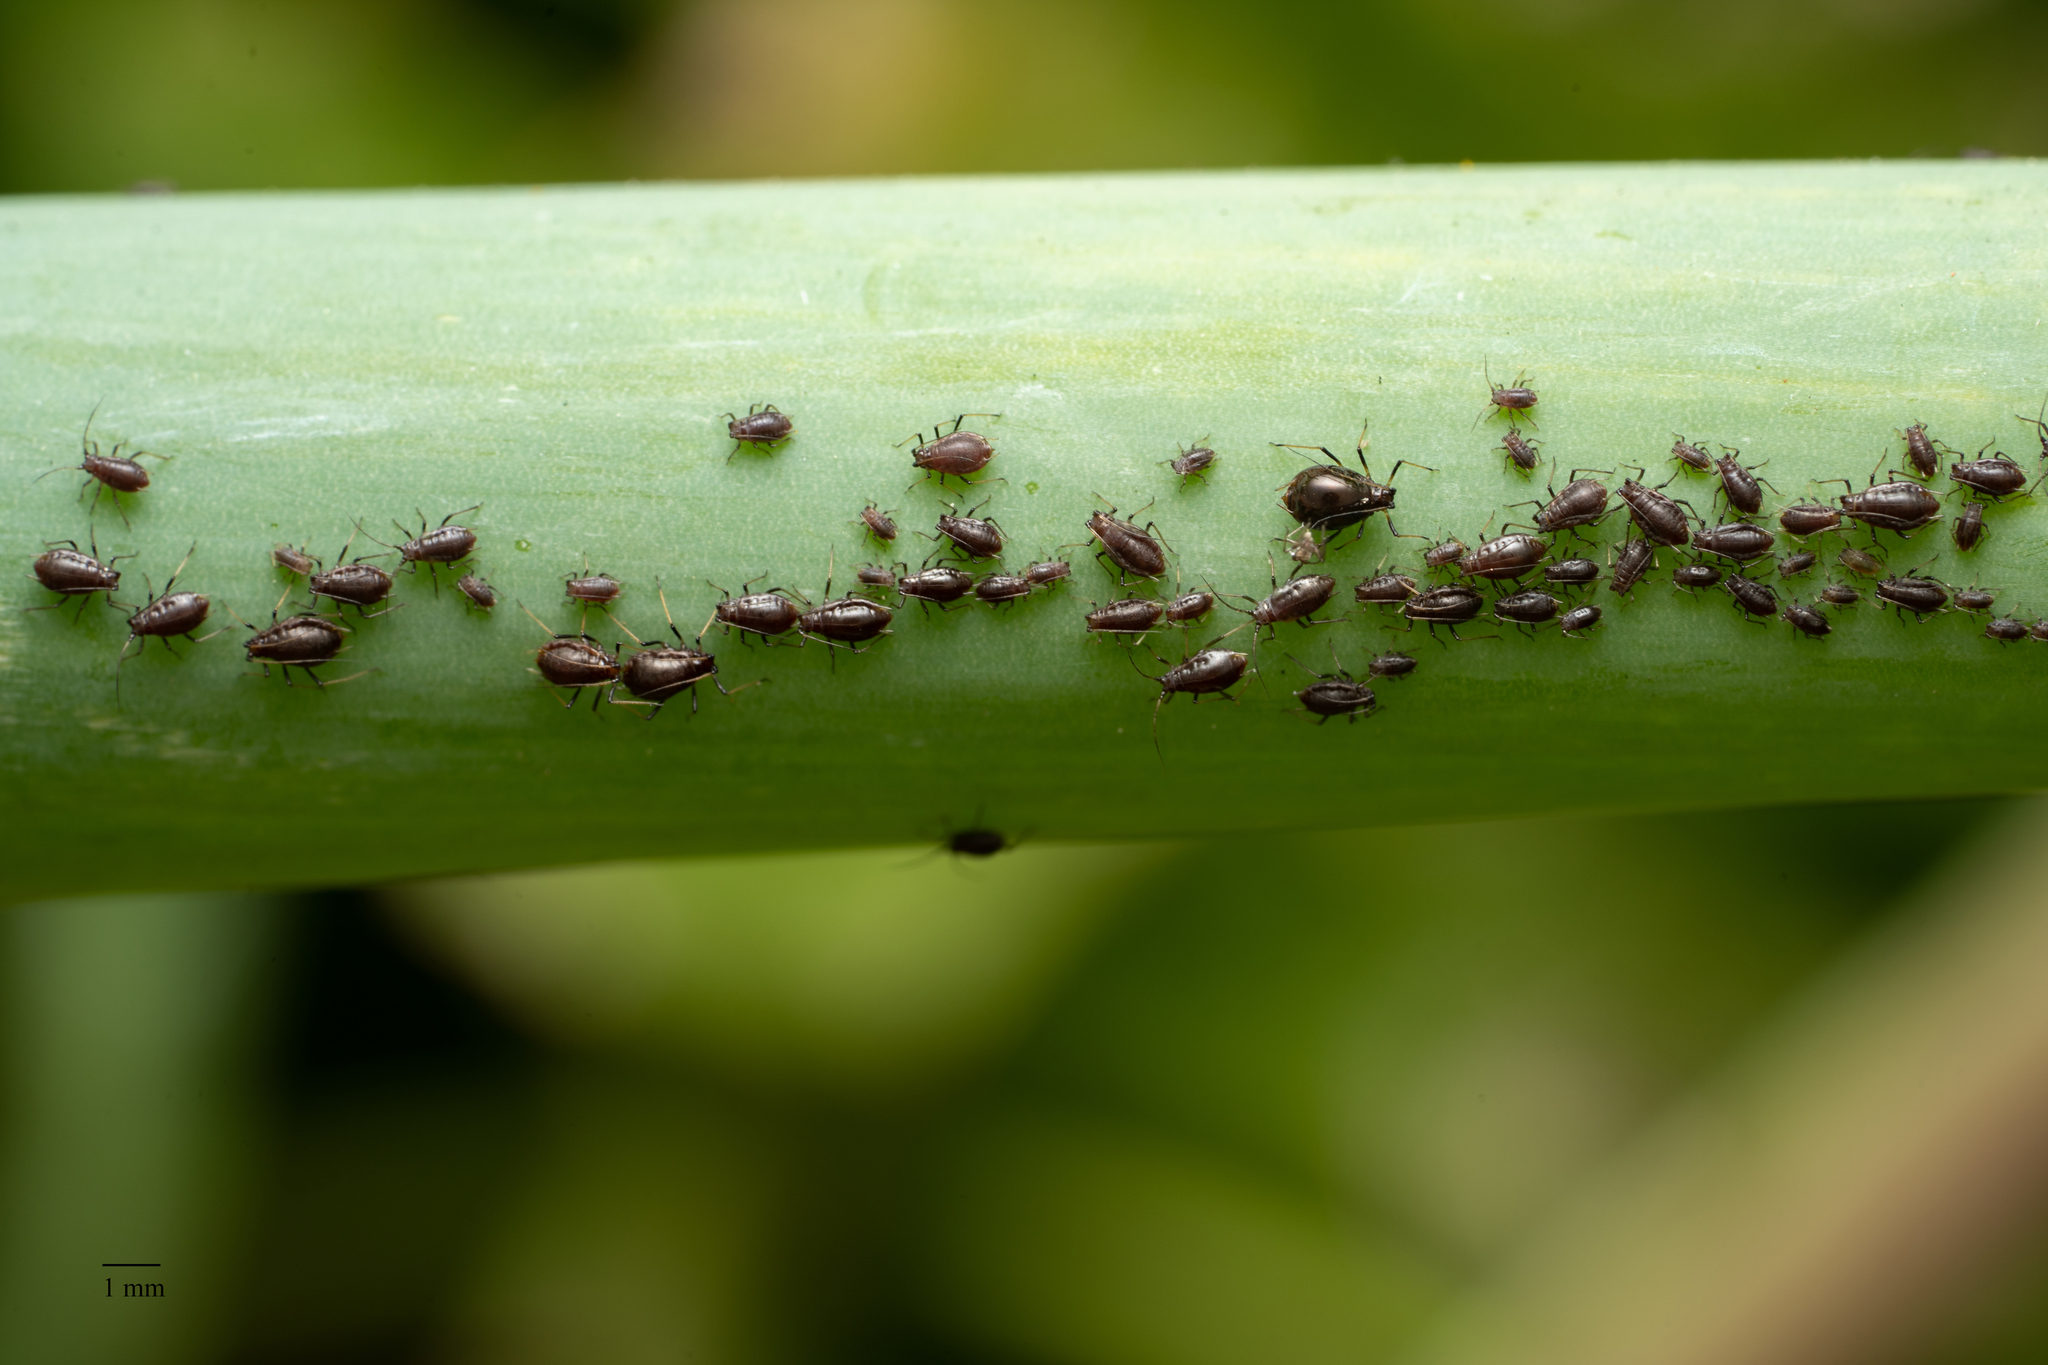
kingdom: Animalia
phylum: Arthropoda
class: Insecta
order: Hemiptera
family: Aphididae
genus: Neotoxoptera
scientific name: Neotoxoptera formosana
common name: Onion aphid
